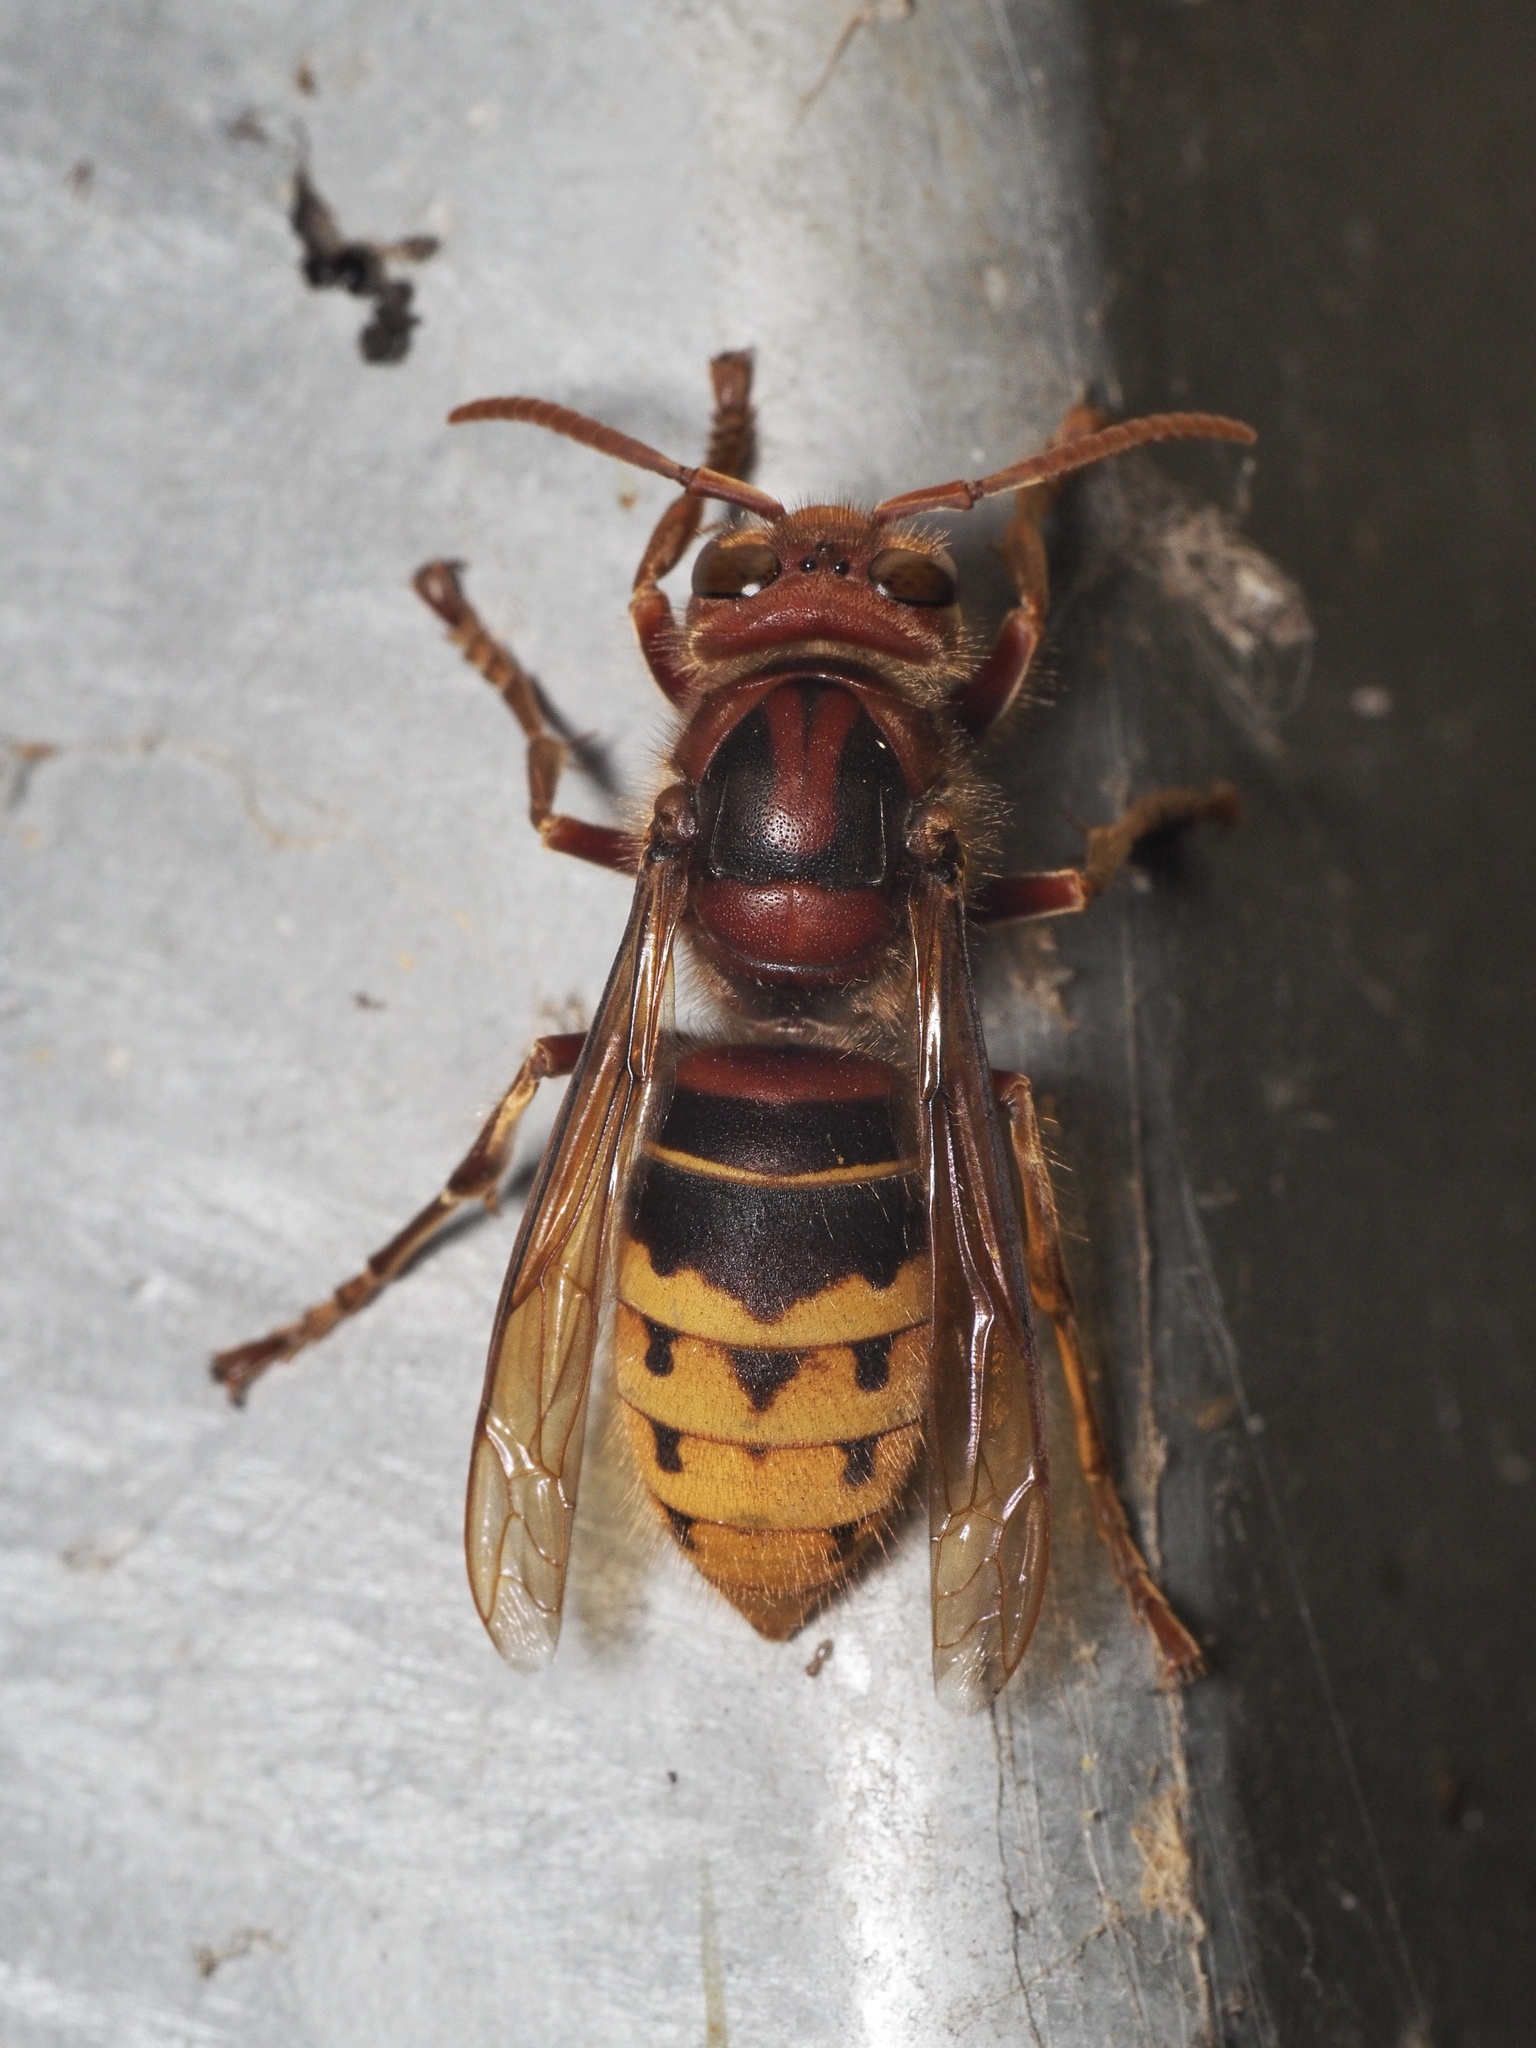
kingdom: Animalia
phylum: Arthropoda
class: Insecta
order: Hymenoptera
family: Vespidae
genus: Vespa
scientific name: Vespa crabro
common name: Hornet
